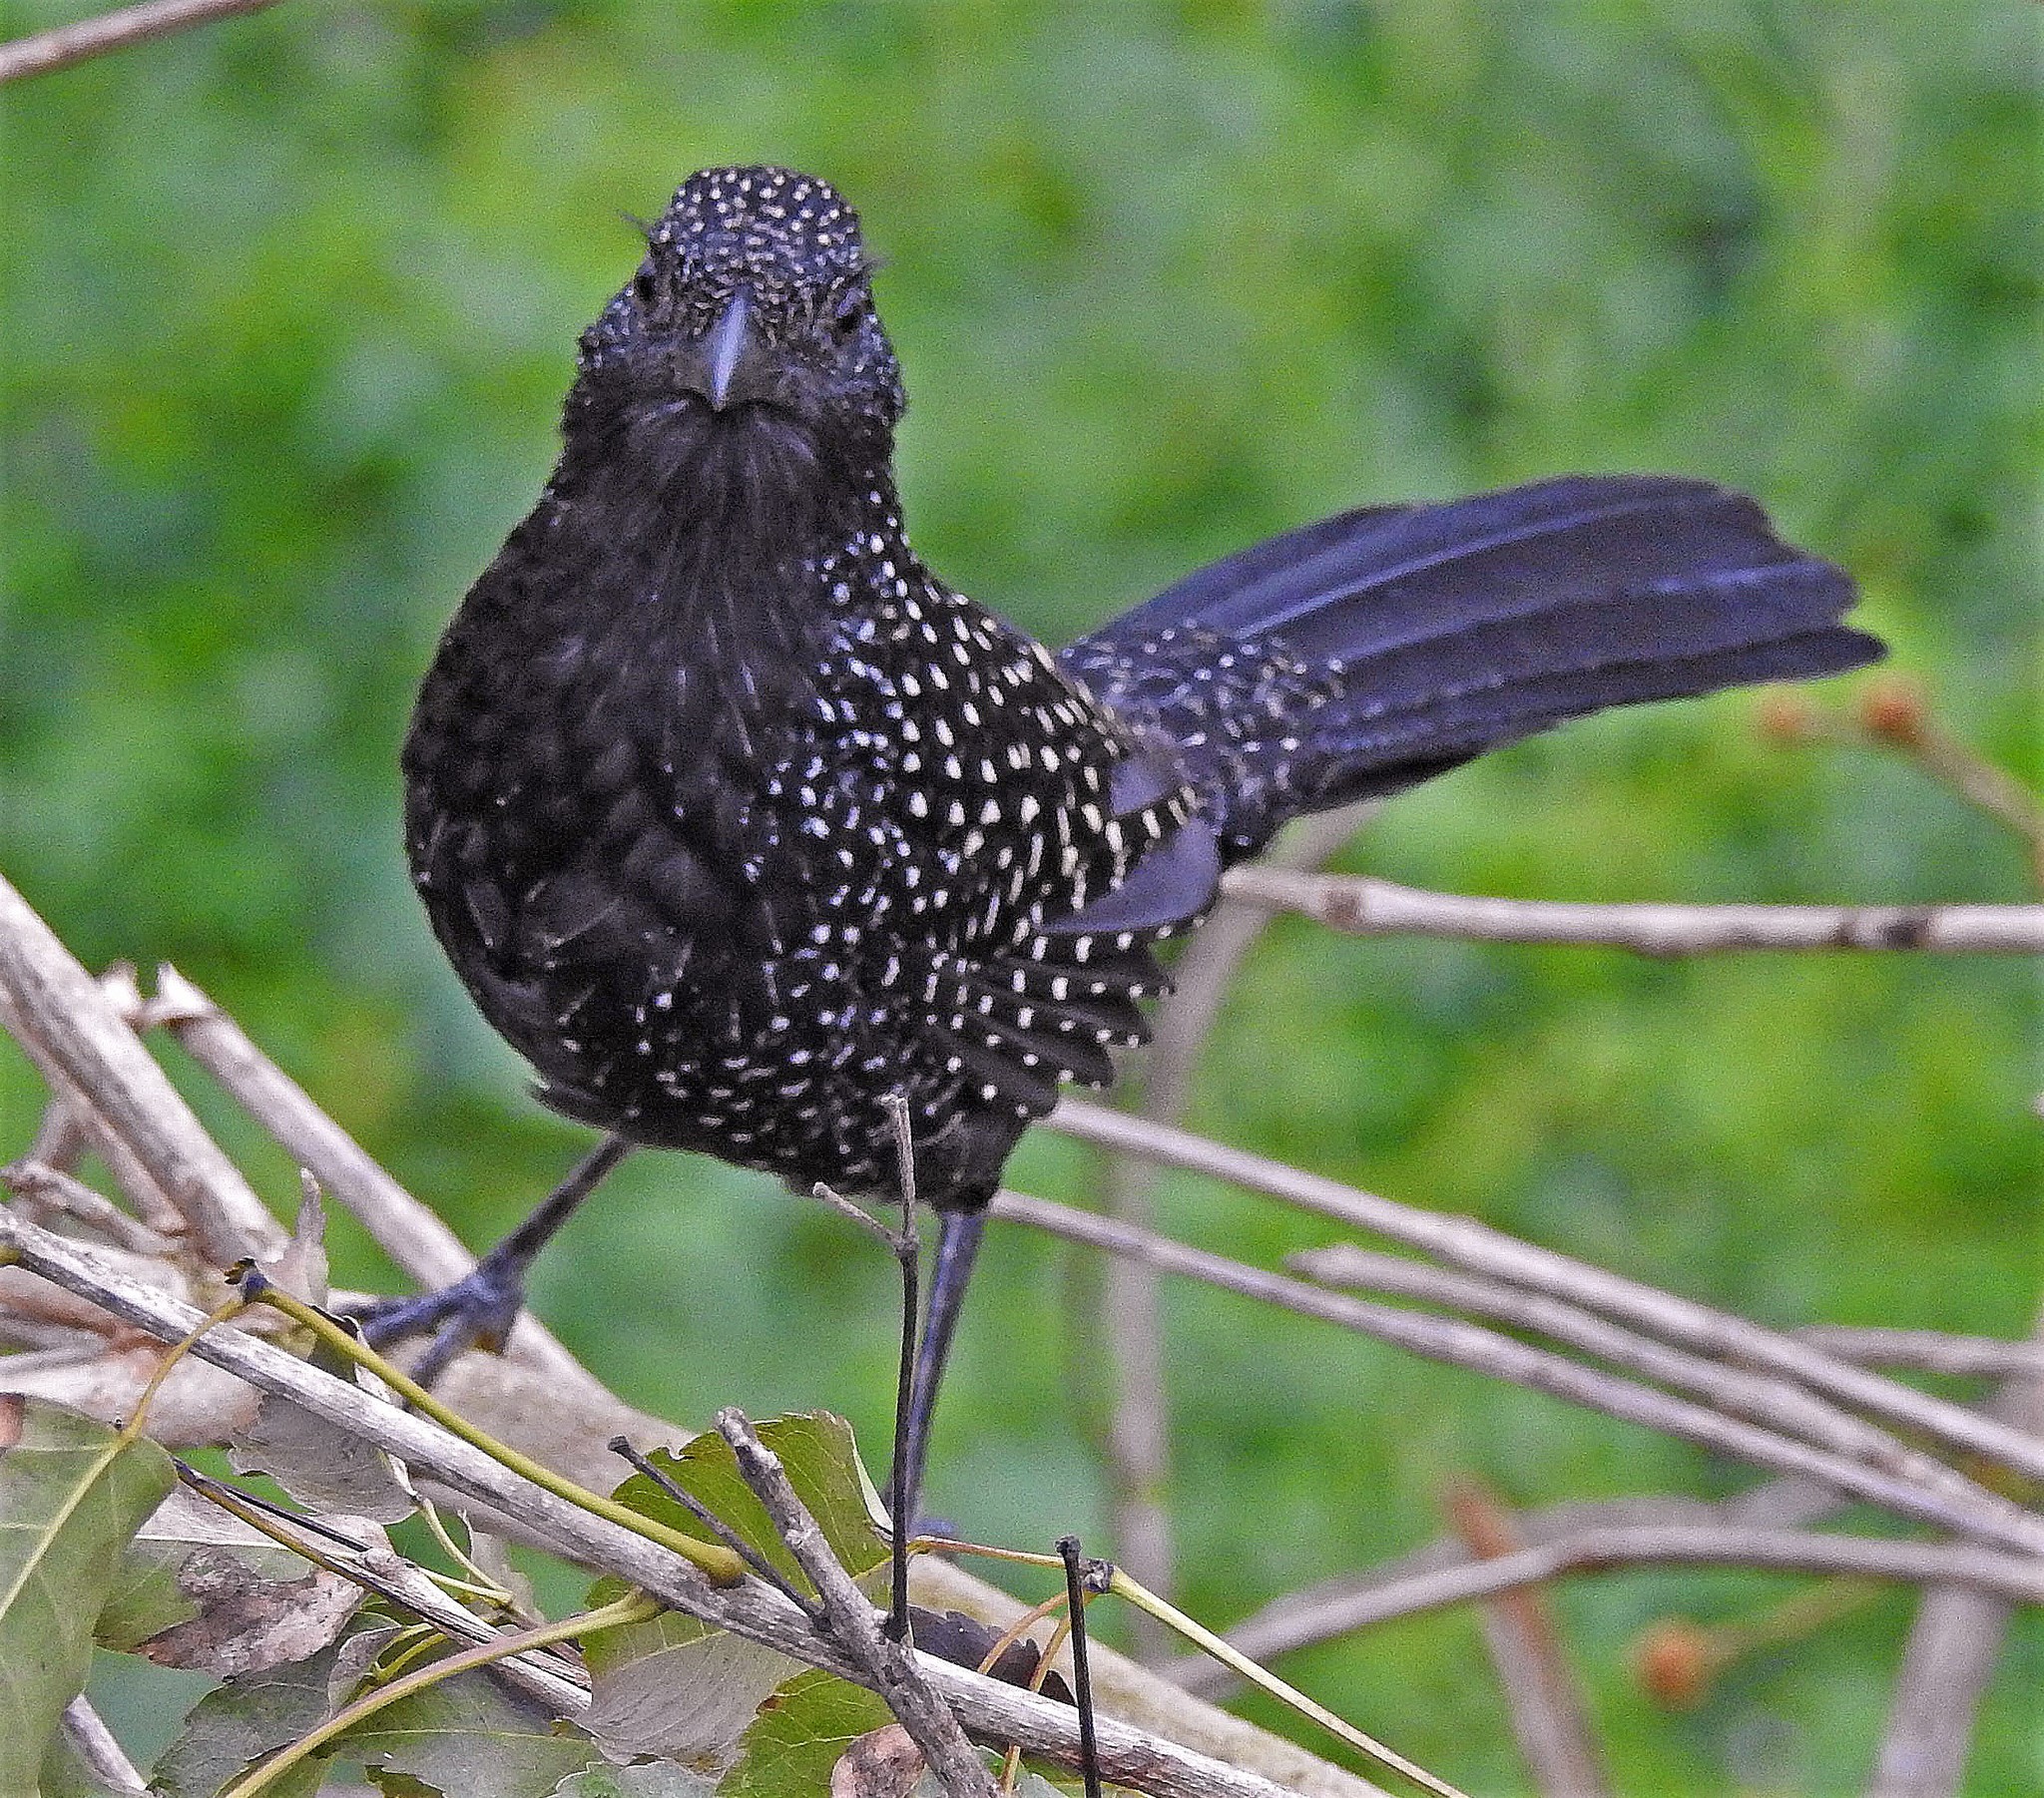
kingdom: Animalia
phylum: Chordata
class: Aves
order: Passeriformes
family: Thamnophilidae
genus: Mackenziaena
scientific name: Mackenziaena leachii
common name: Large-tailed antshrike
